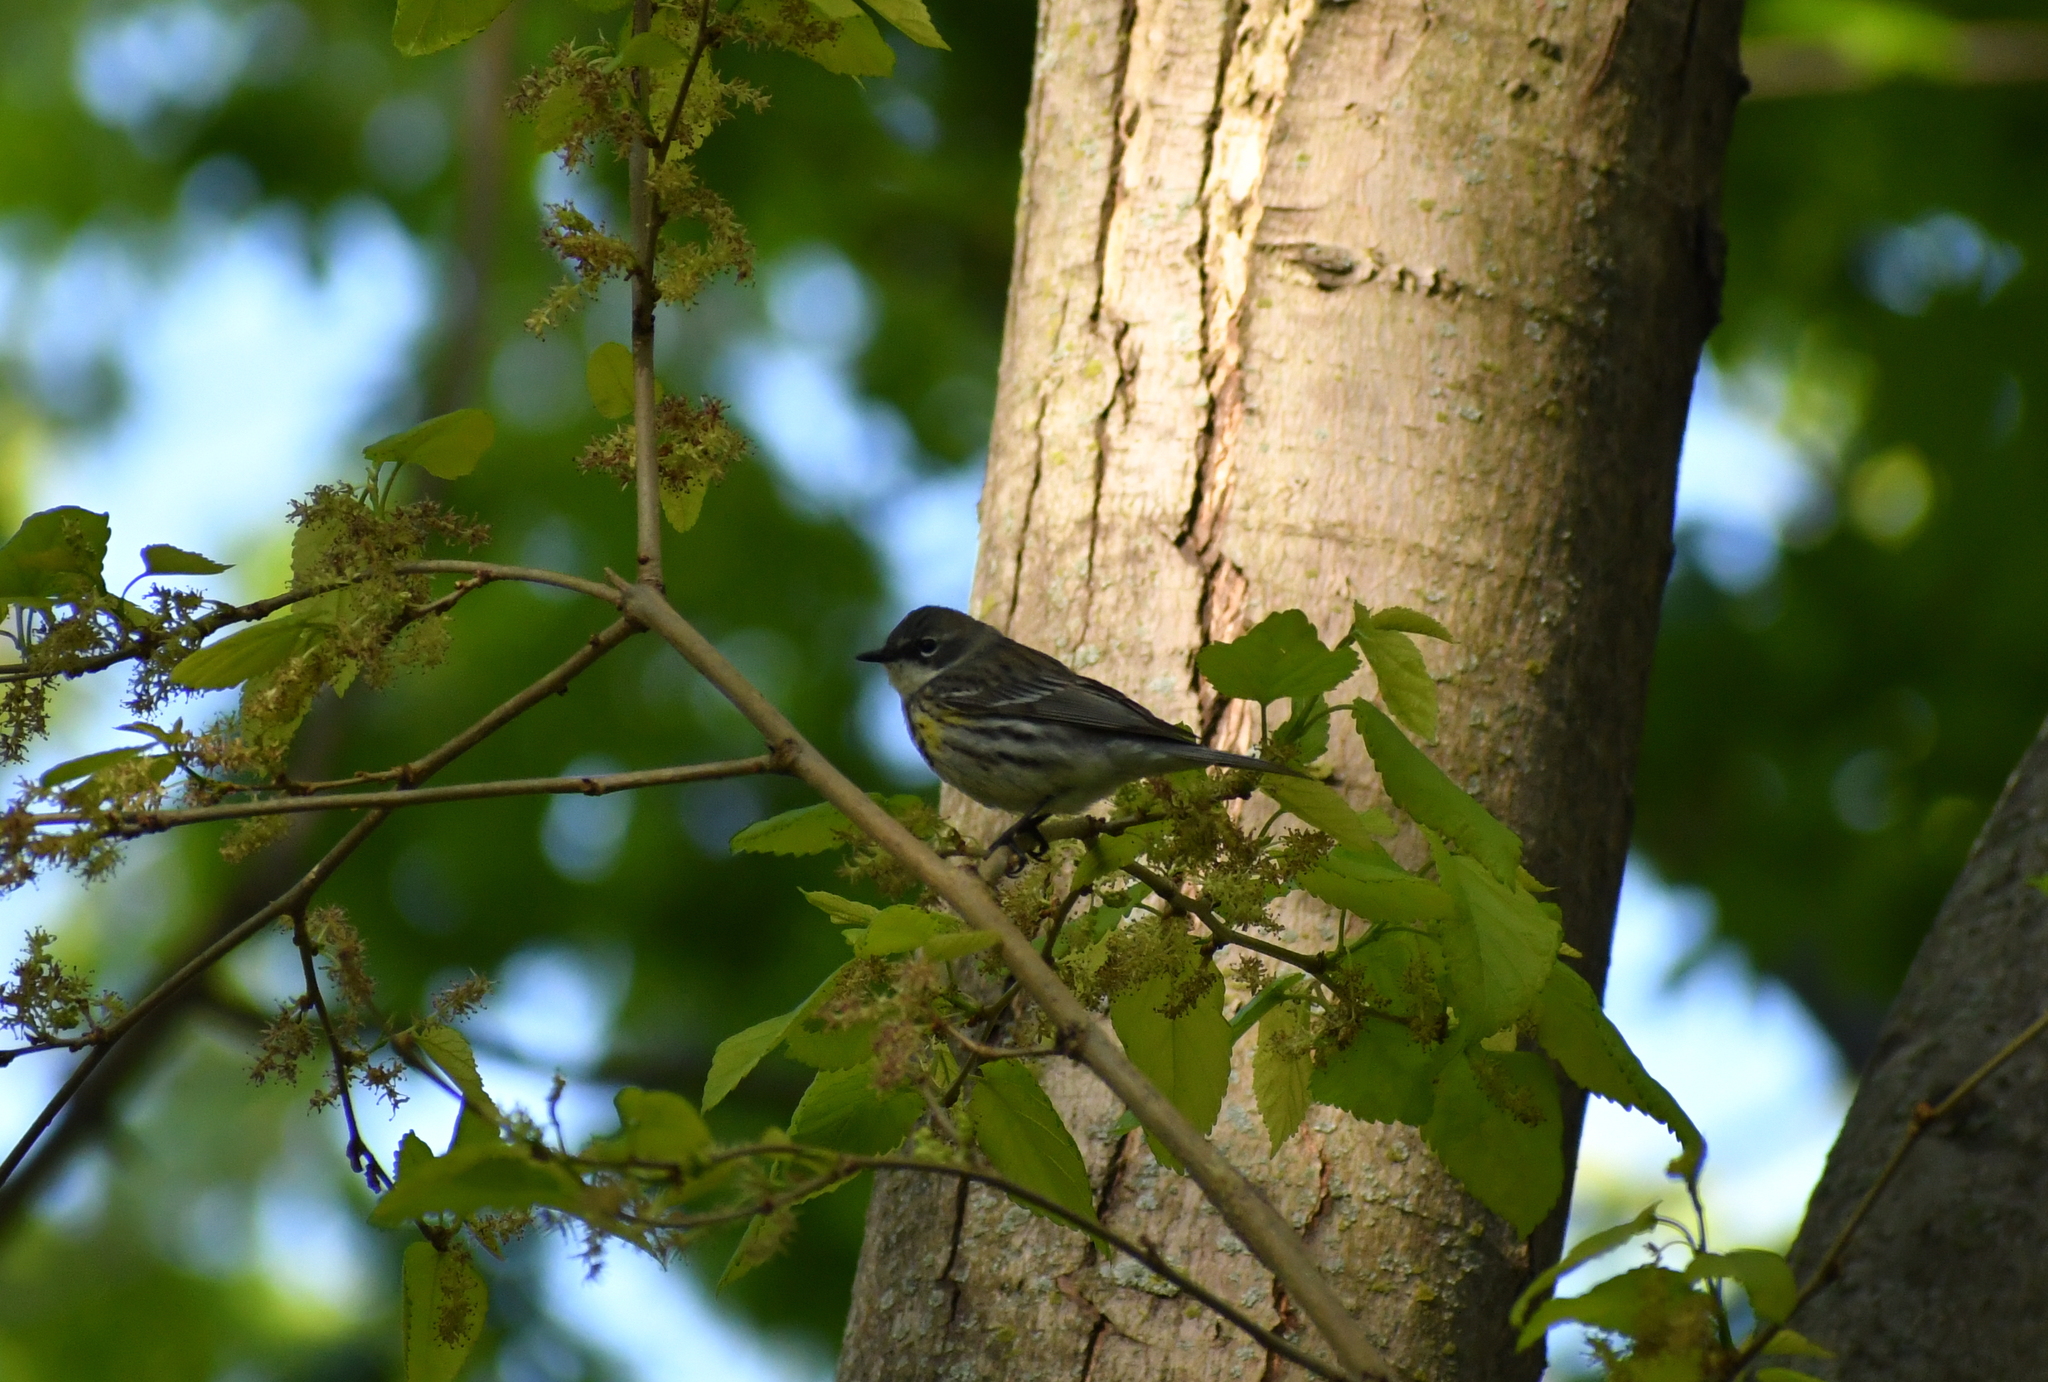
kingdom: Animalia
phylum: Chordata
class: Aves
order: Passeriformes
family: Parulidae
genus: Setophaga
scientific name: Setophaga coronata
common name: Myrtle warbler
